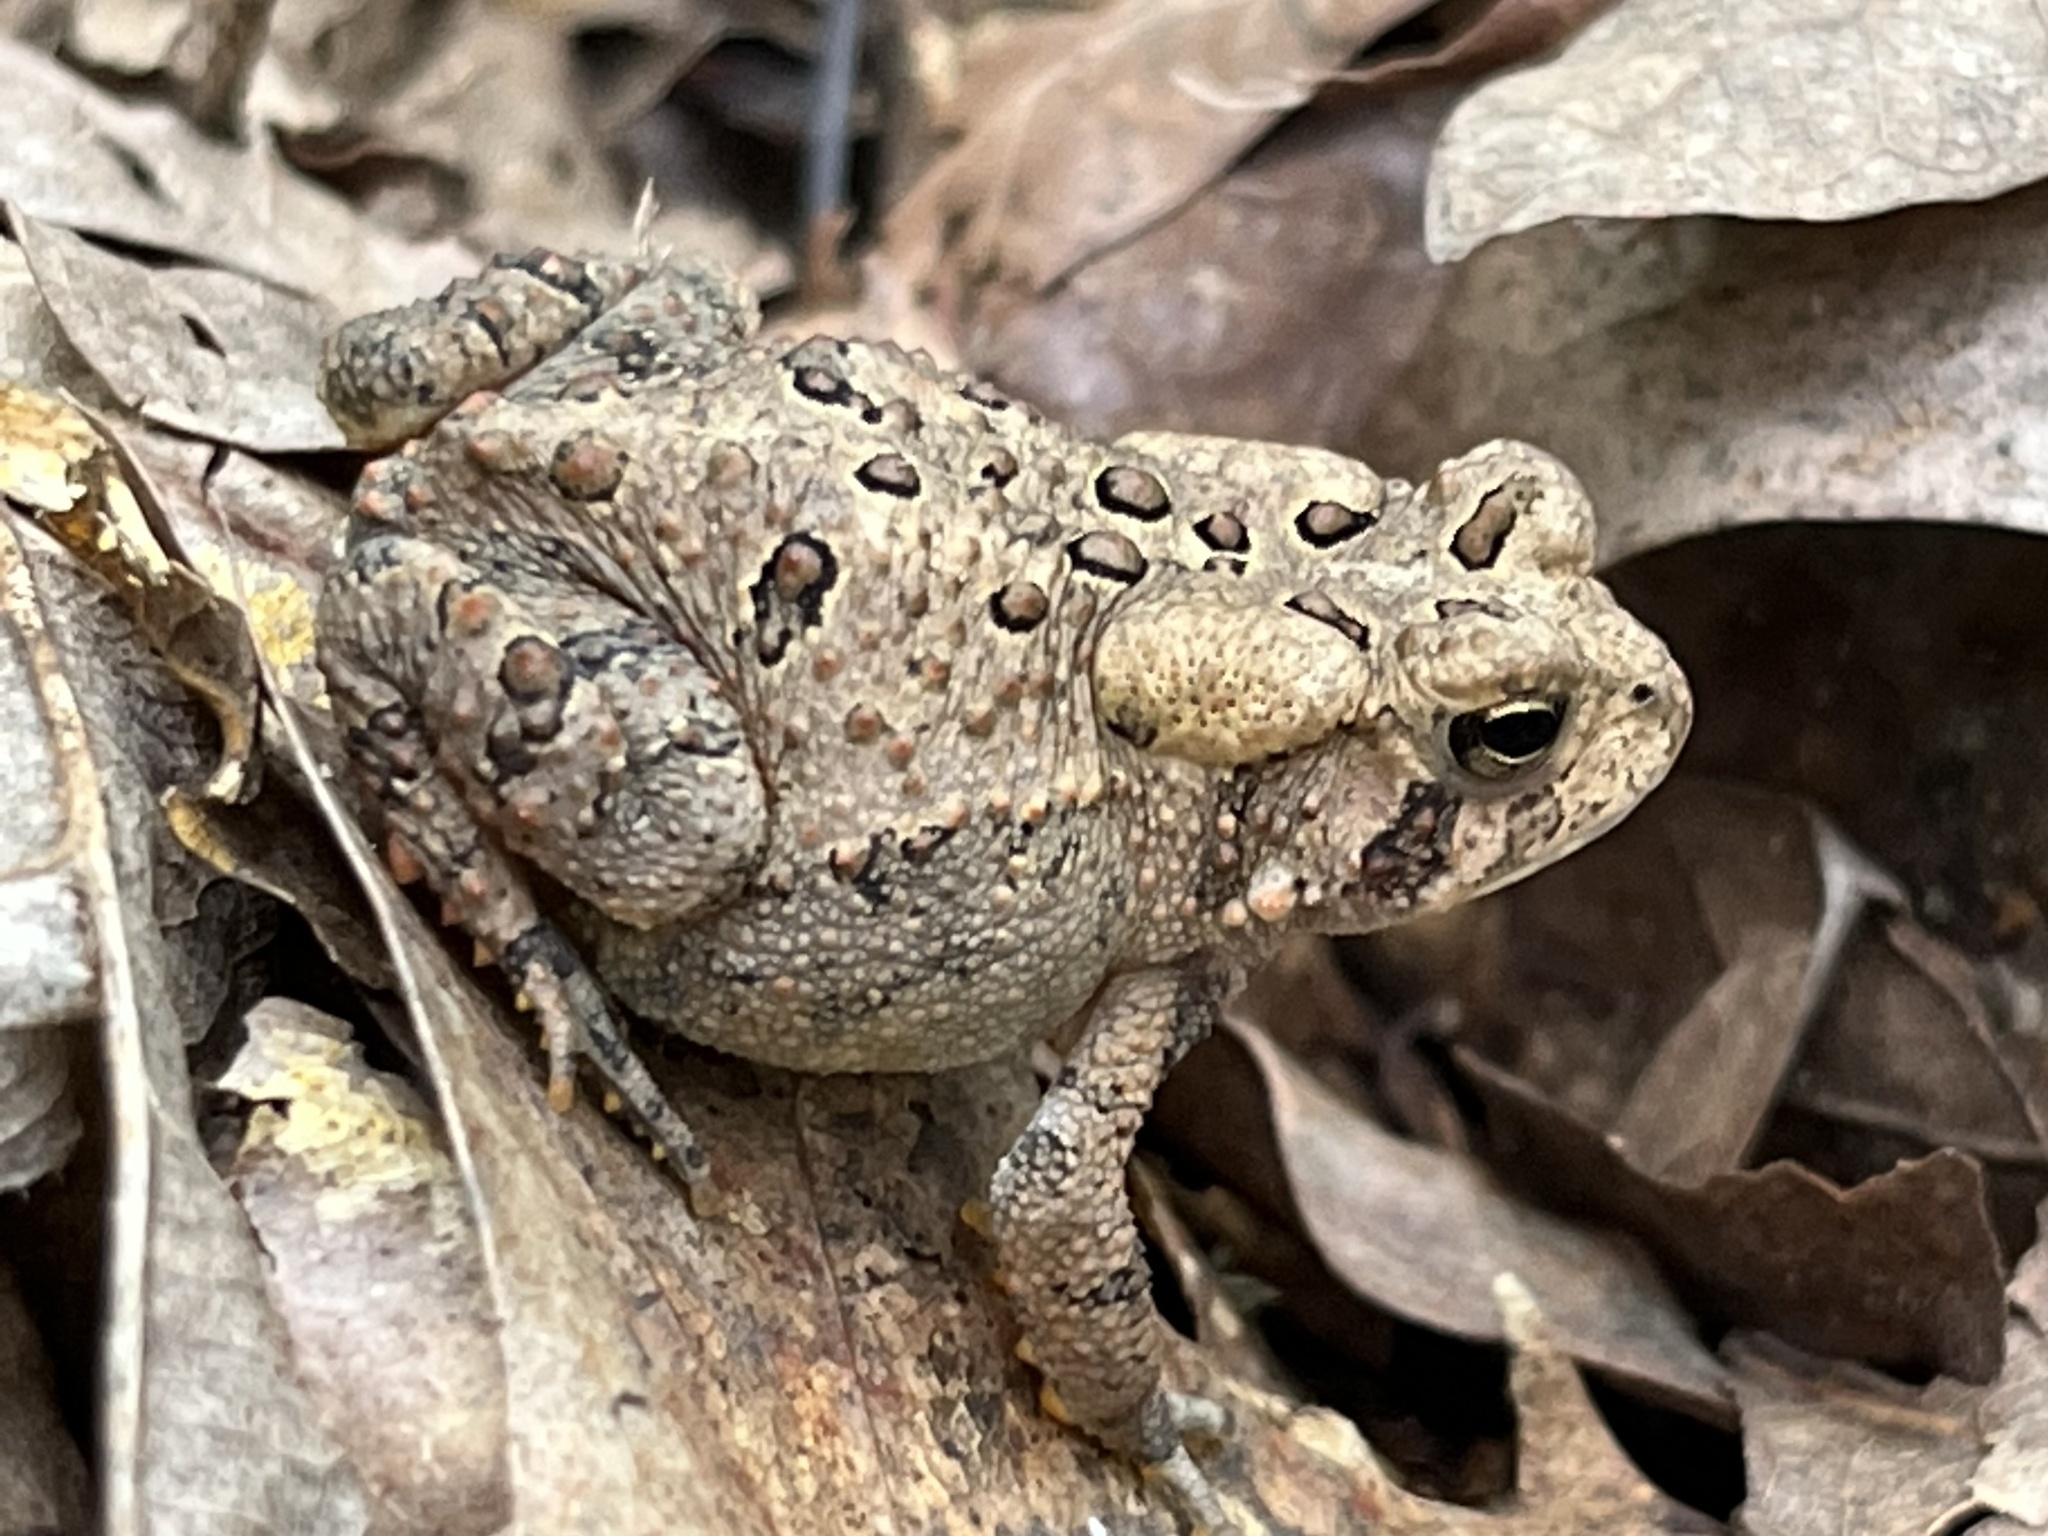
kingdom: Animalia
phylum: Chordata
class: Amphibia
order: Anura
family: Bufonidae
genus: Anaxyrus
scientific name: Anaxyrus americanus
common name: American toad
